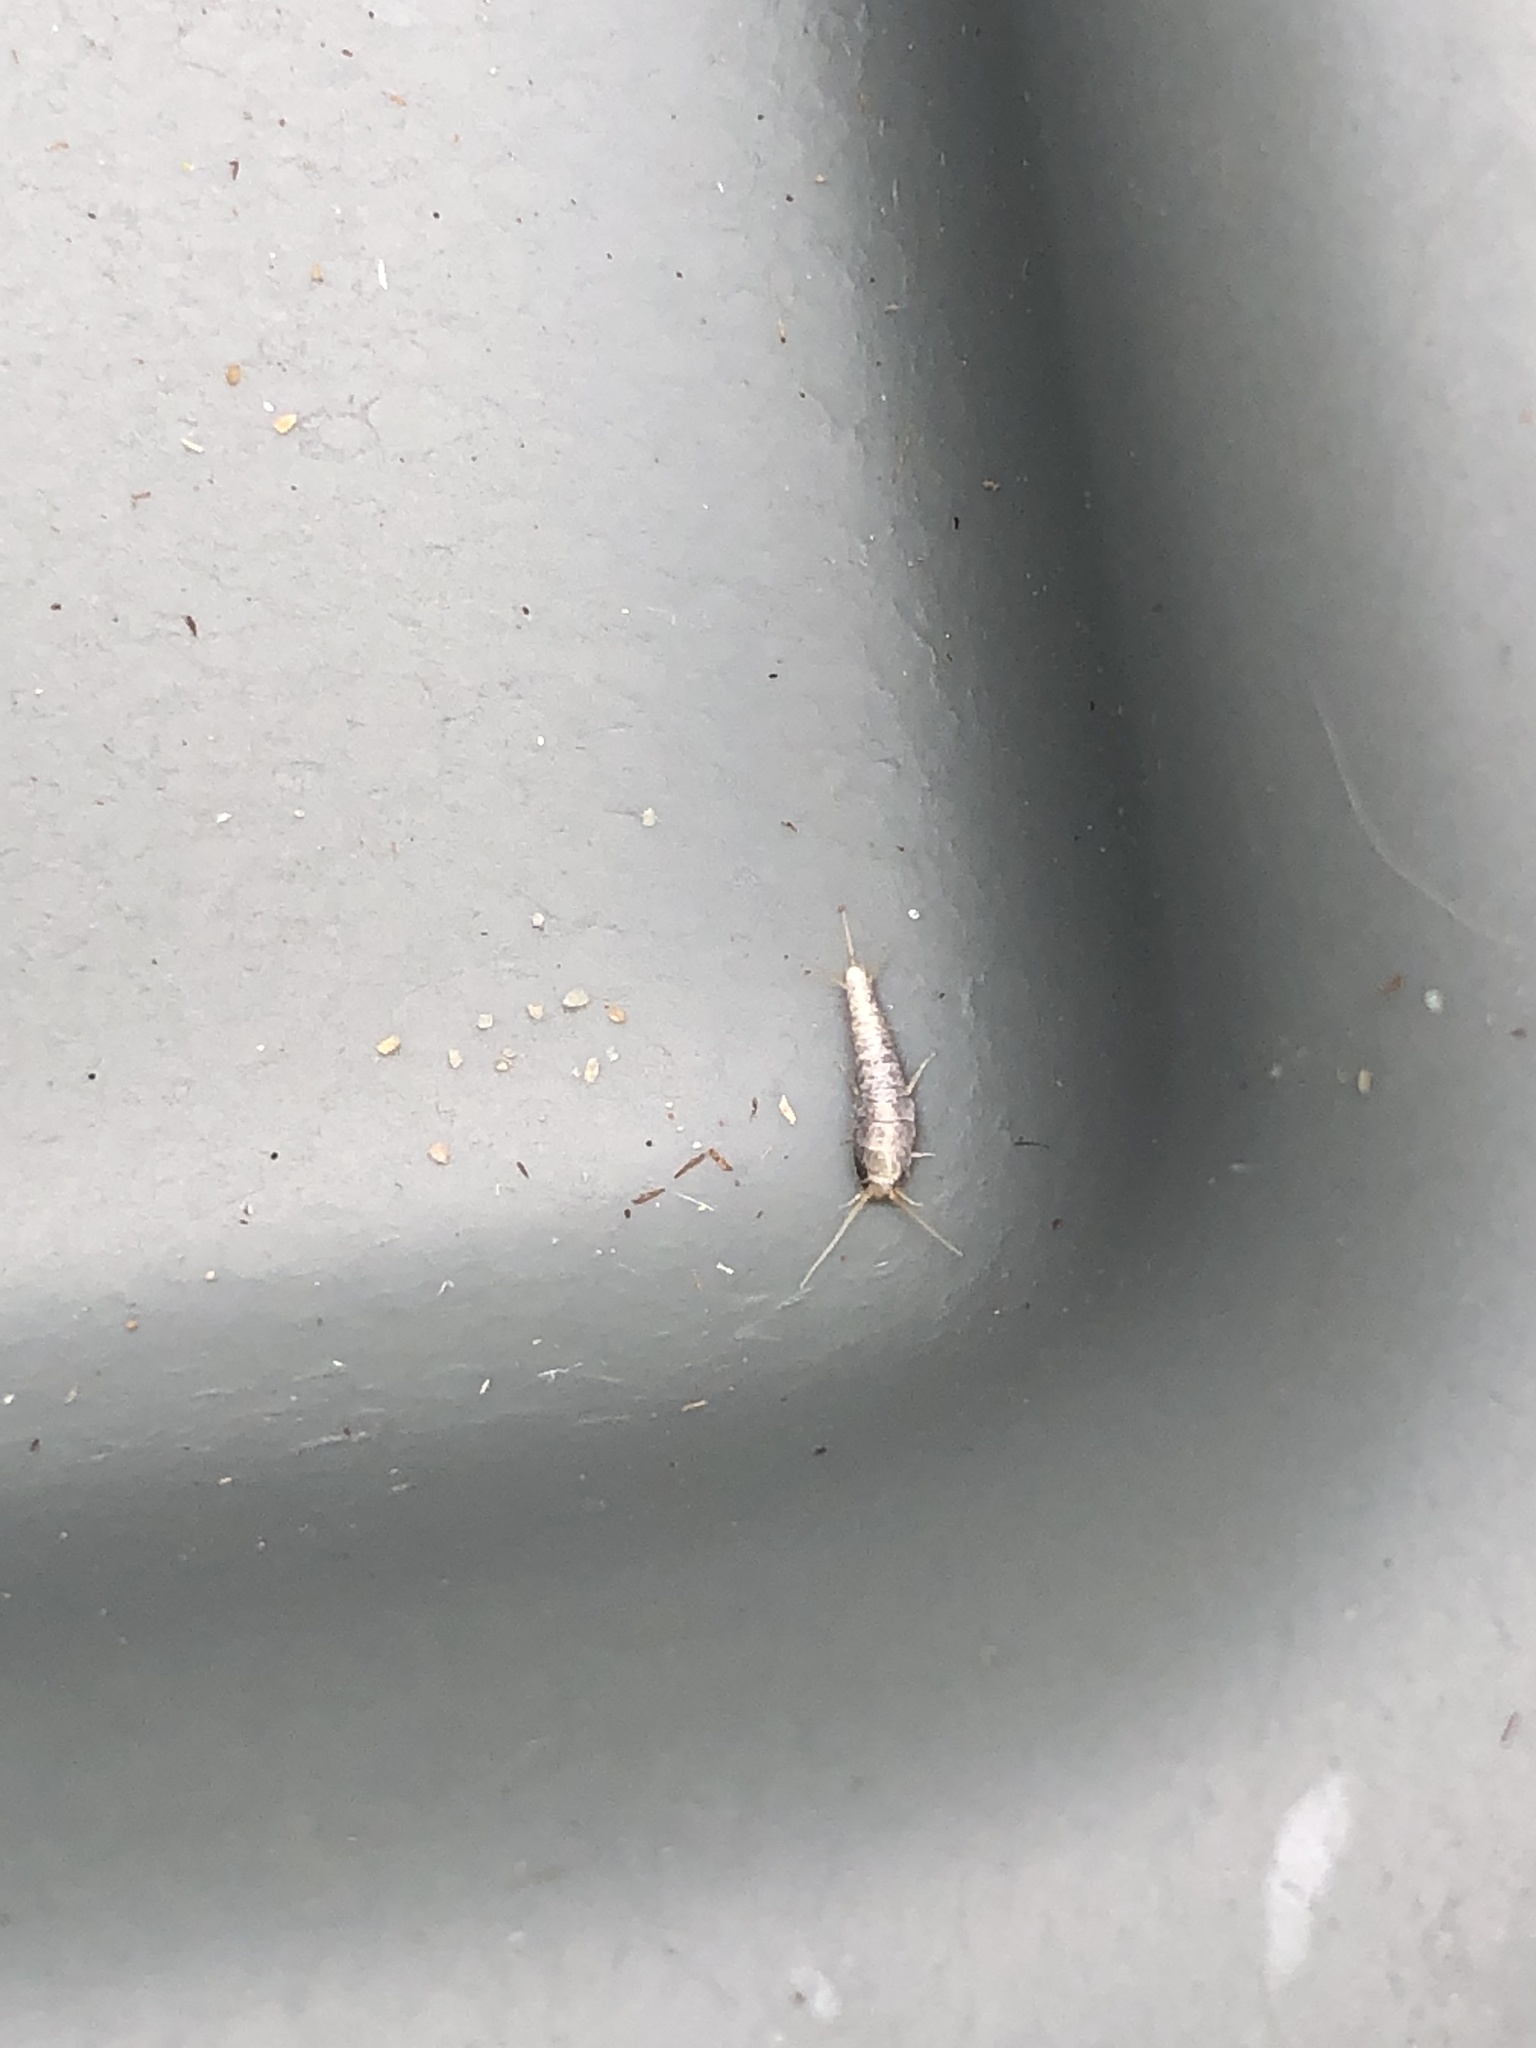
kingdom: Animalia
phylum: Arthropoda
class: Insecta
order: Zygentoma
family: Lepismatidae
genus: Lepisma
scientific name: Lepisma saccharinum
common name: Silverfish
